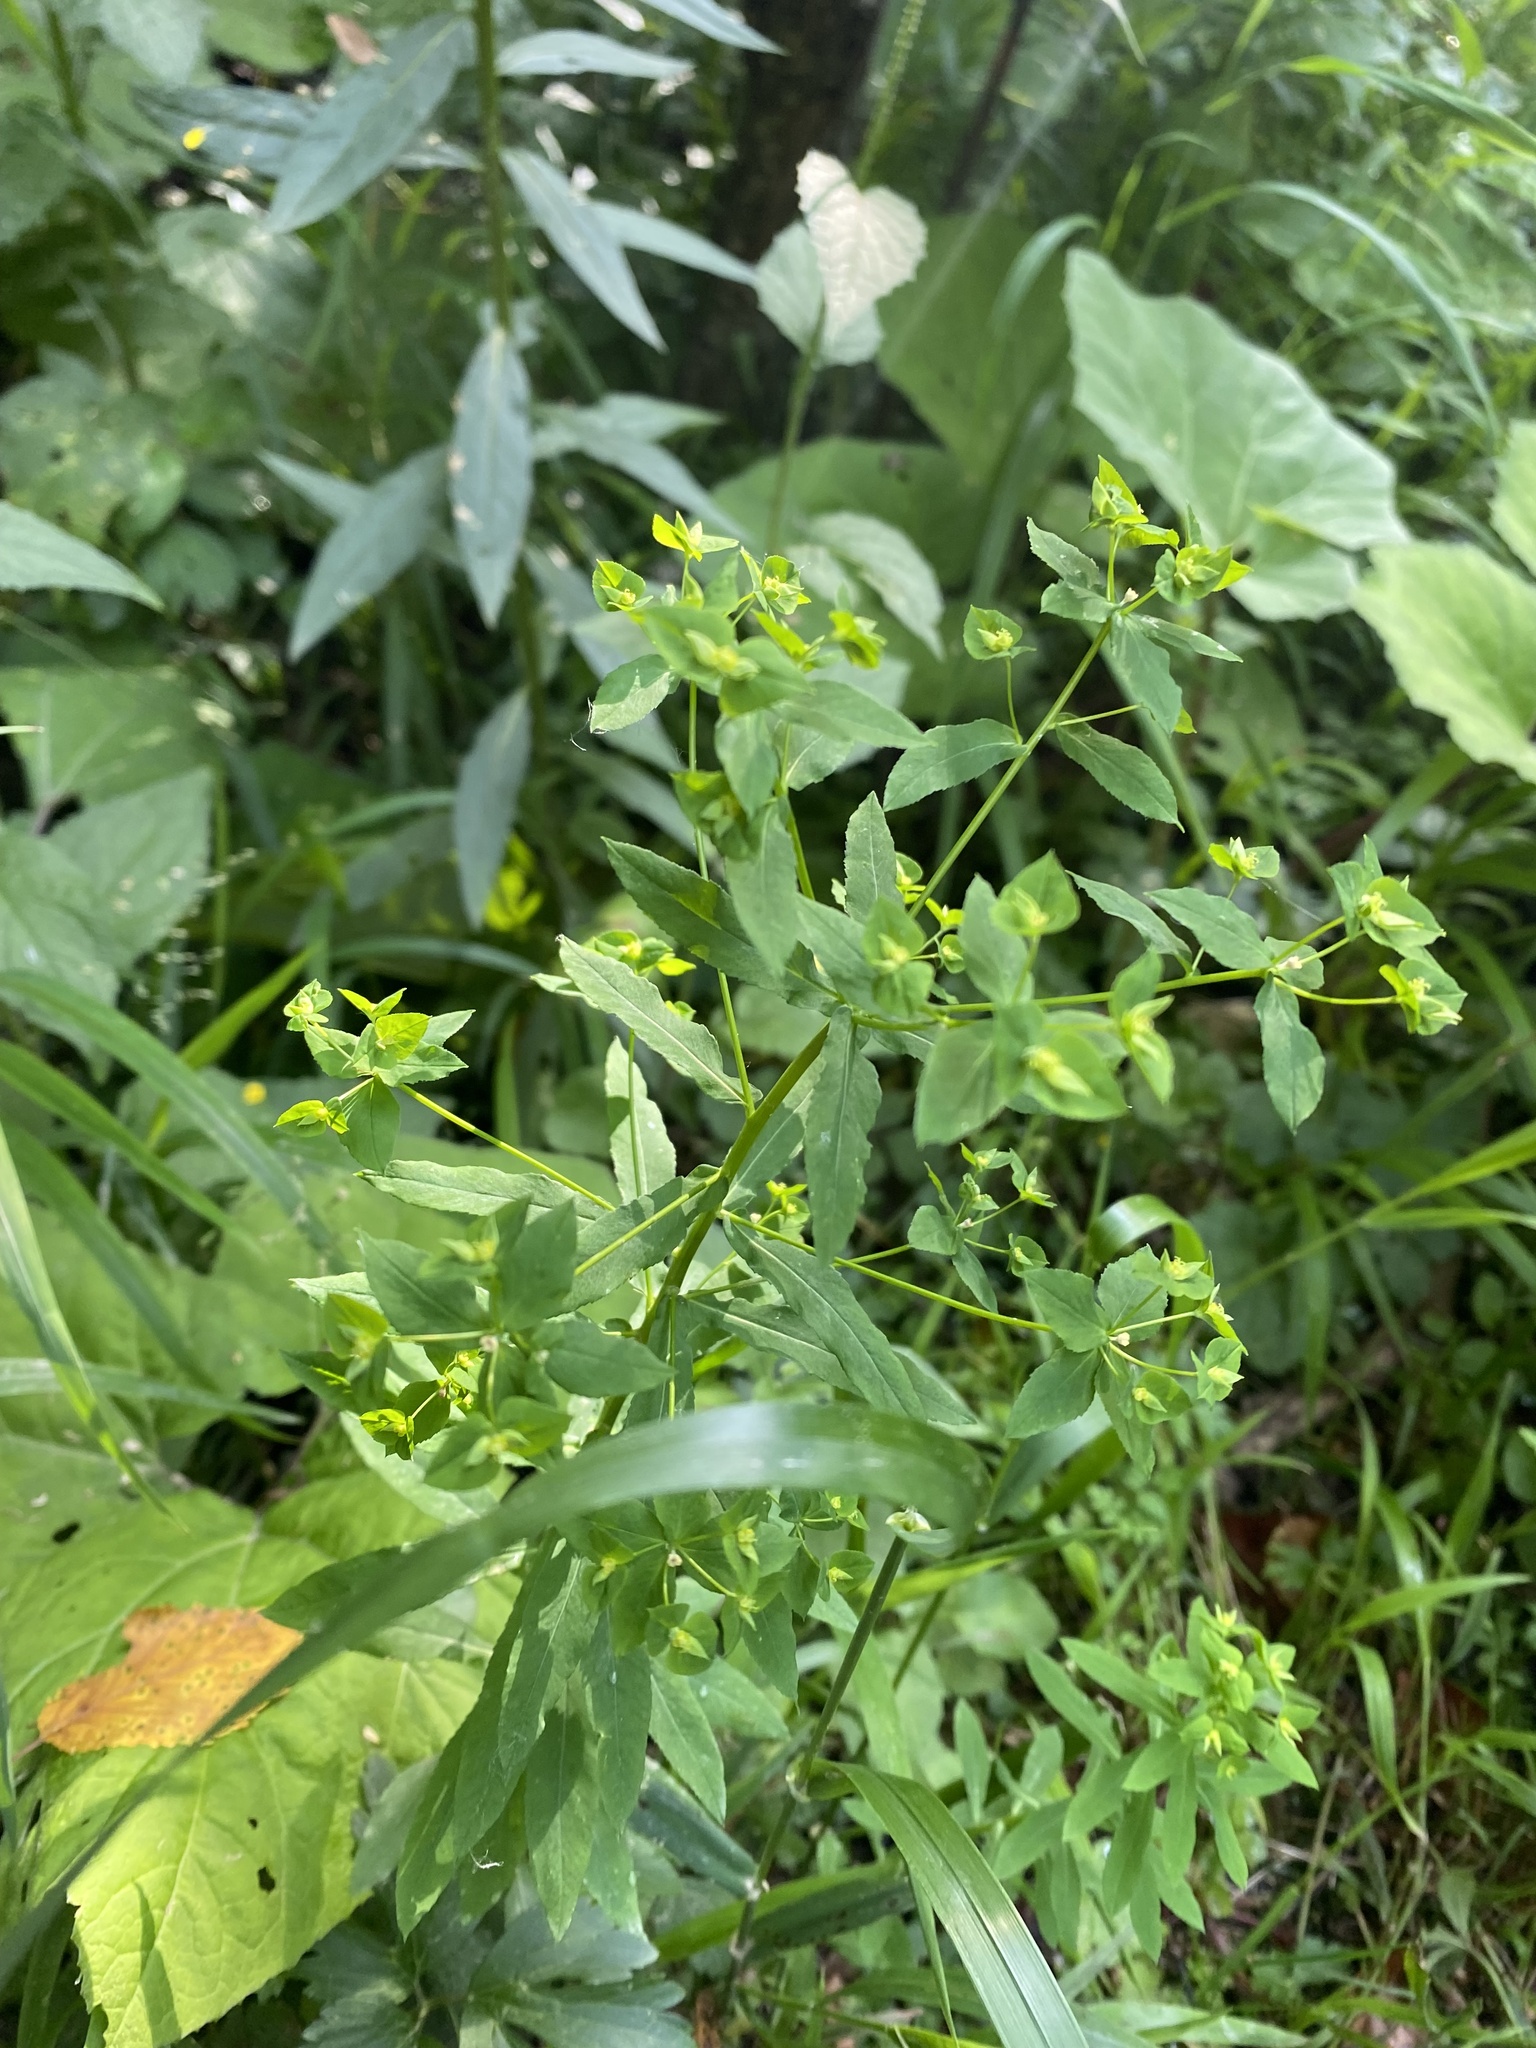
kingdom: Plantae
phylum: Tracheophyta
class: Magnoliopsida
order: Malpighiales
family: Euphorbiaceae
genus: Euphorbia
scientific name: Euphorbia stricta
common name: Upright spurge
